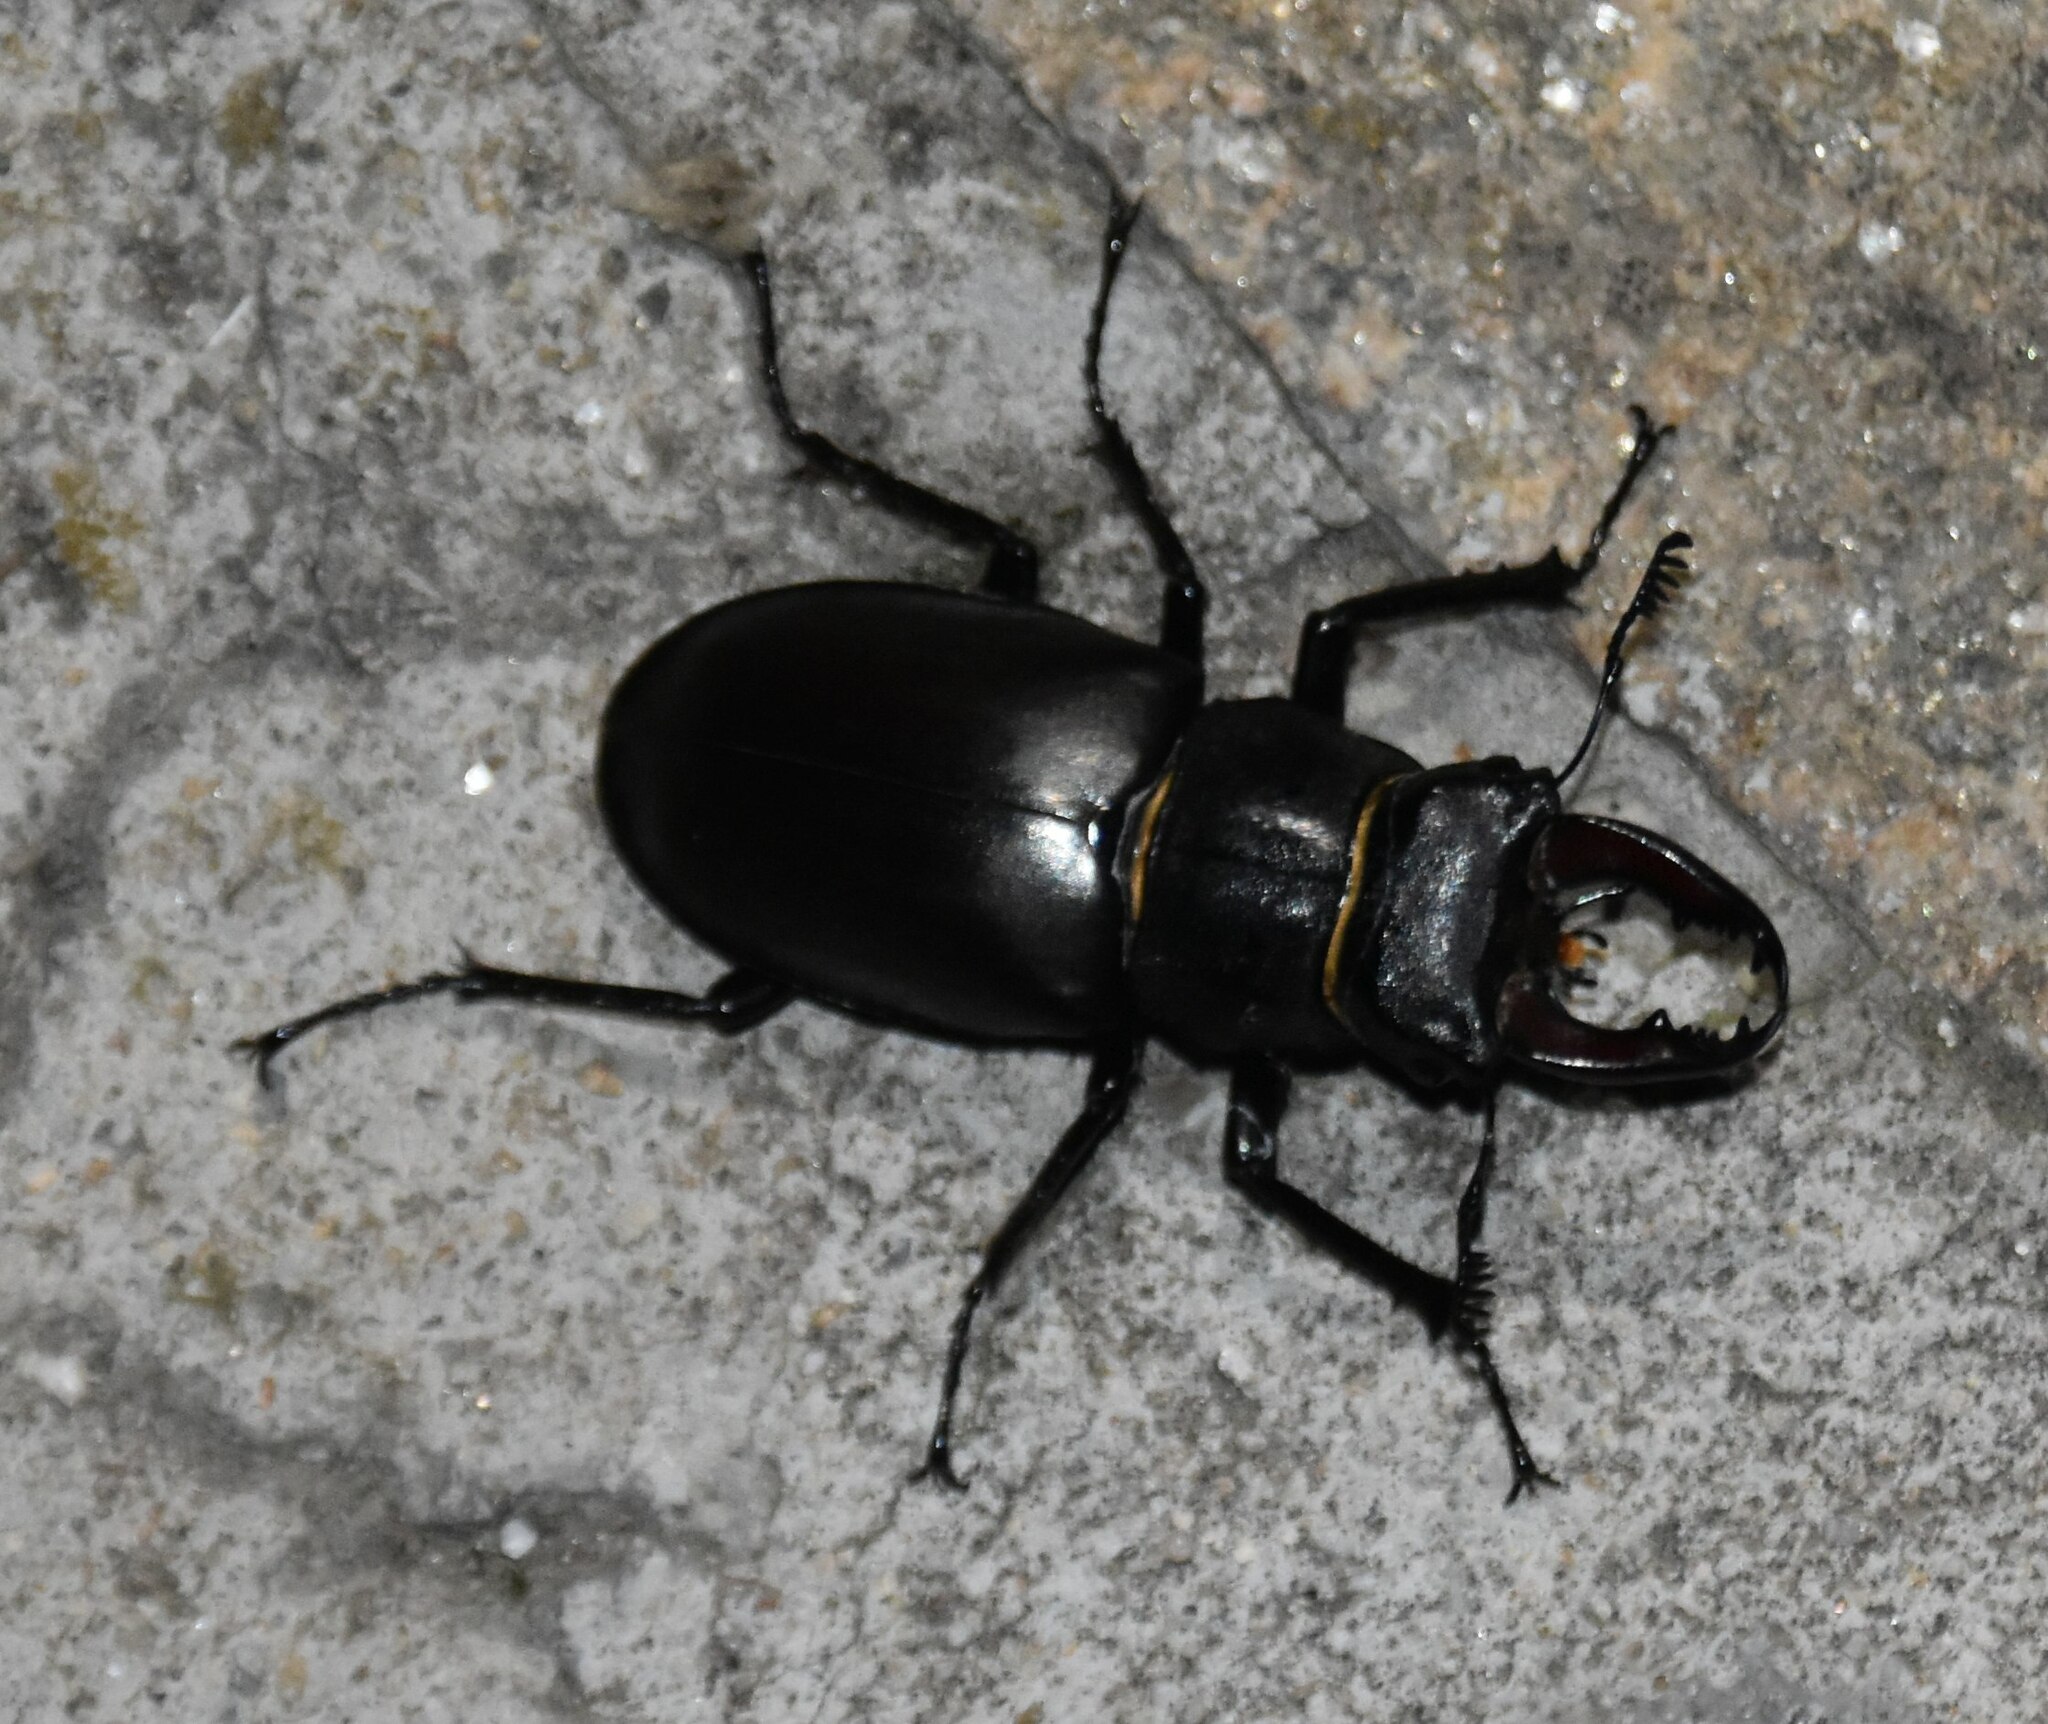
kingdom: Animalia
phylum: Arthropoda
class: Insecta
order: Coleoptera
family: Lucanidae
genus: Lucanus
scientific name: Lucanus cervus
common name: Stag beetle
